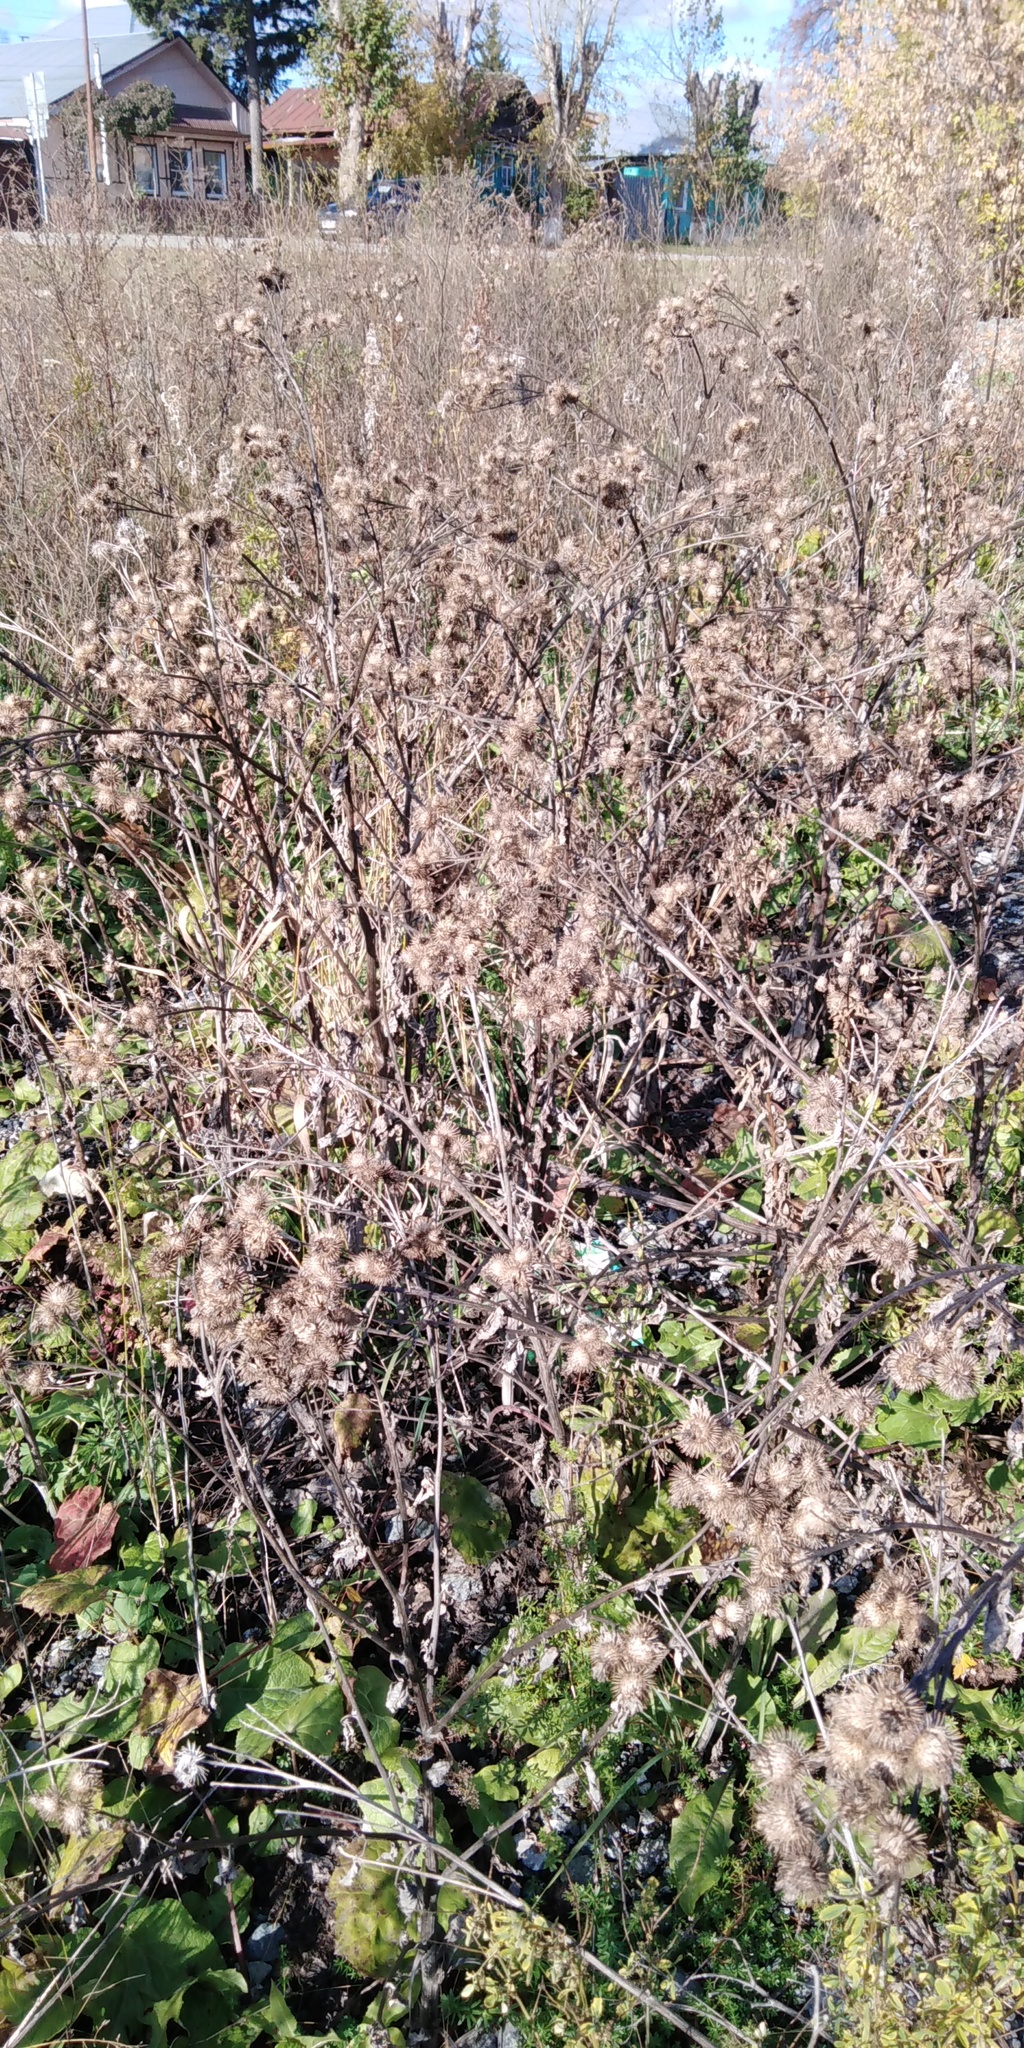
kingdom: Plantae
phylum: Tracheophyta
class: Magnoliopsida
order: Asterales
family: Asteraceae
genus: Arctium
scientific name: Arctium tomentosum
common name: Woolly burdock
